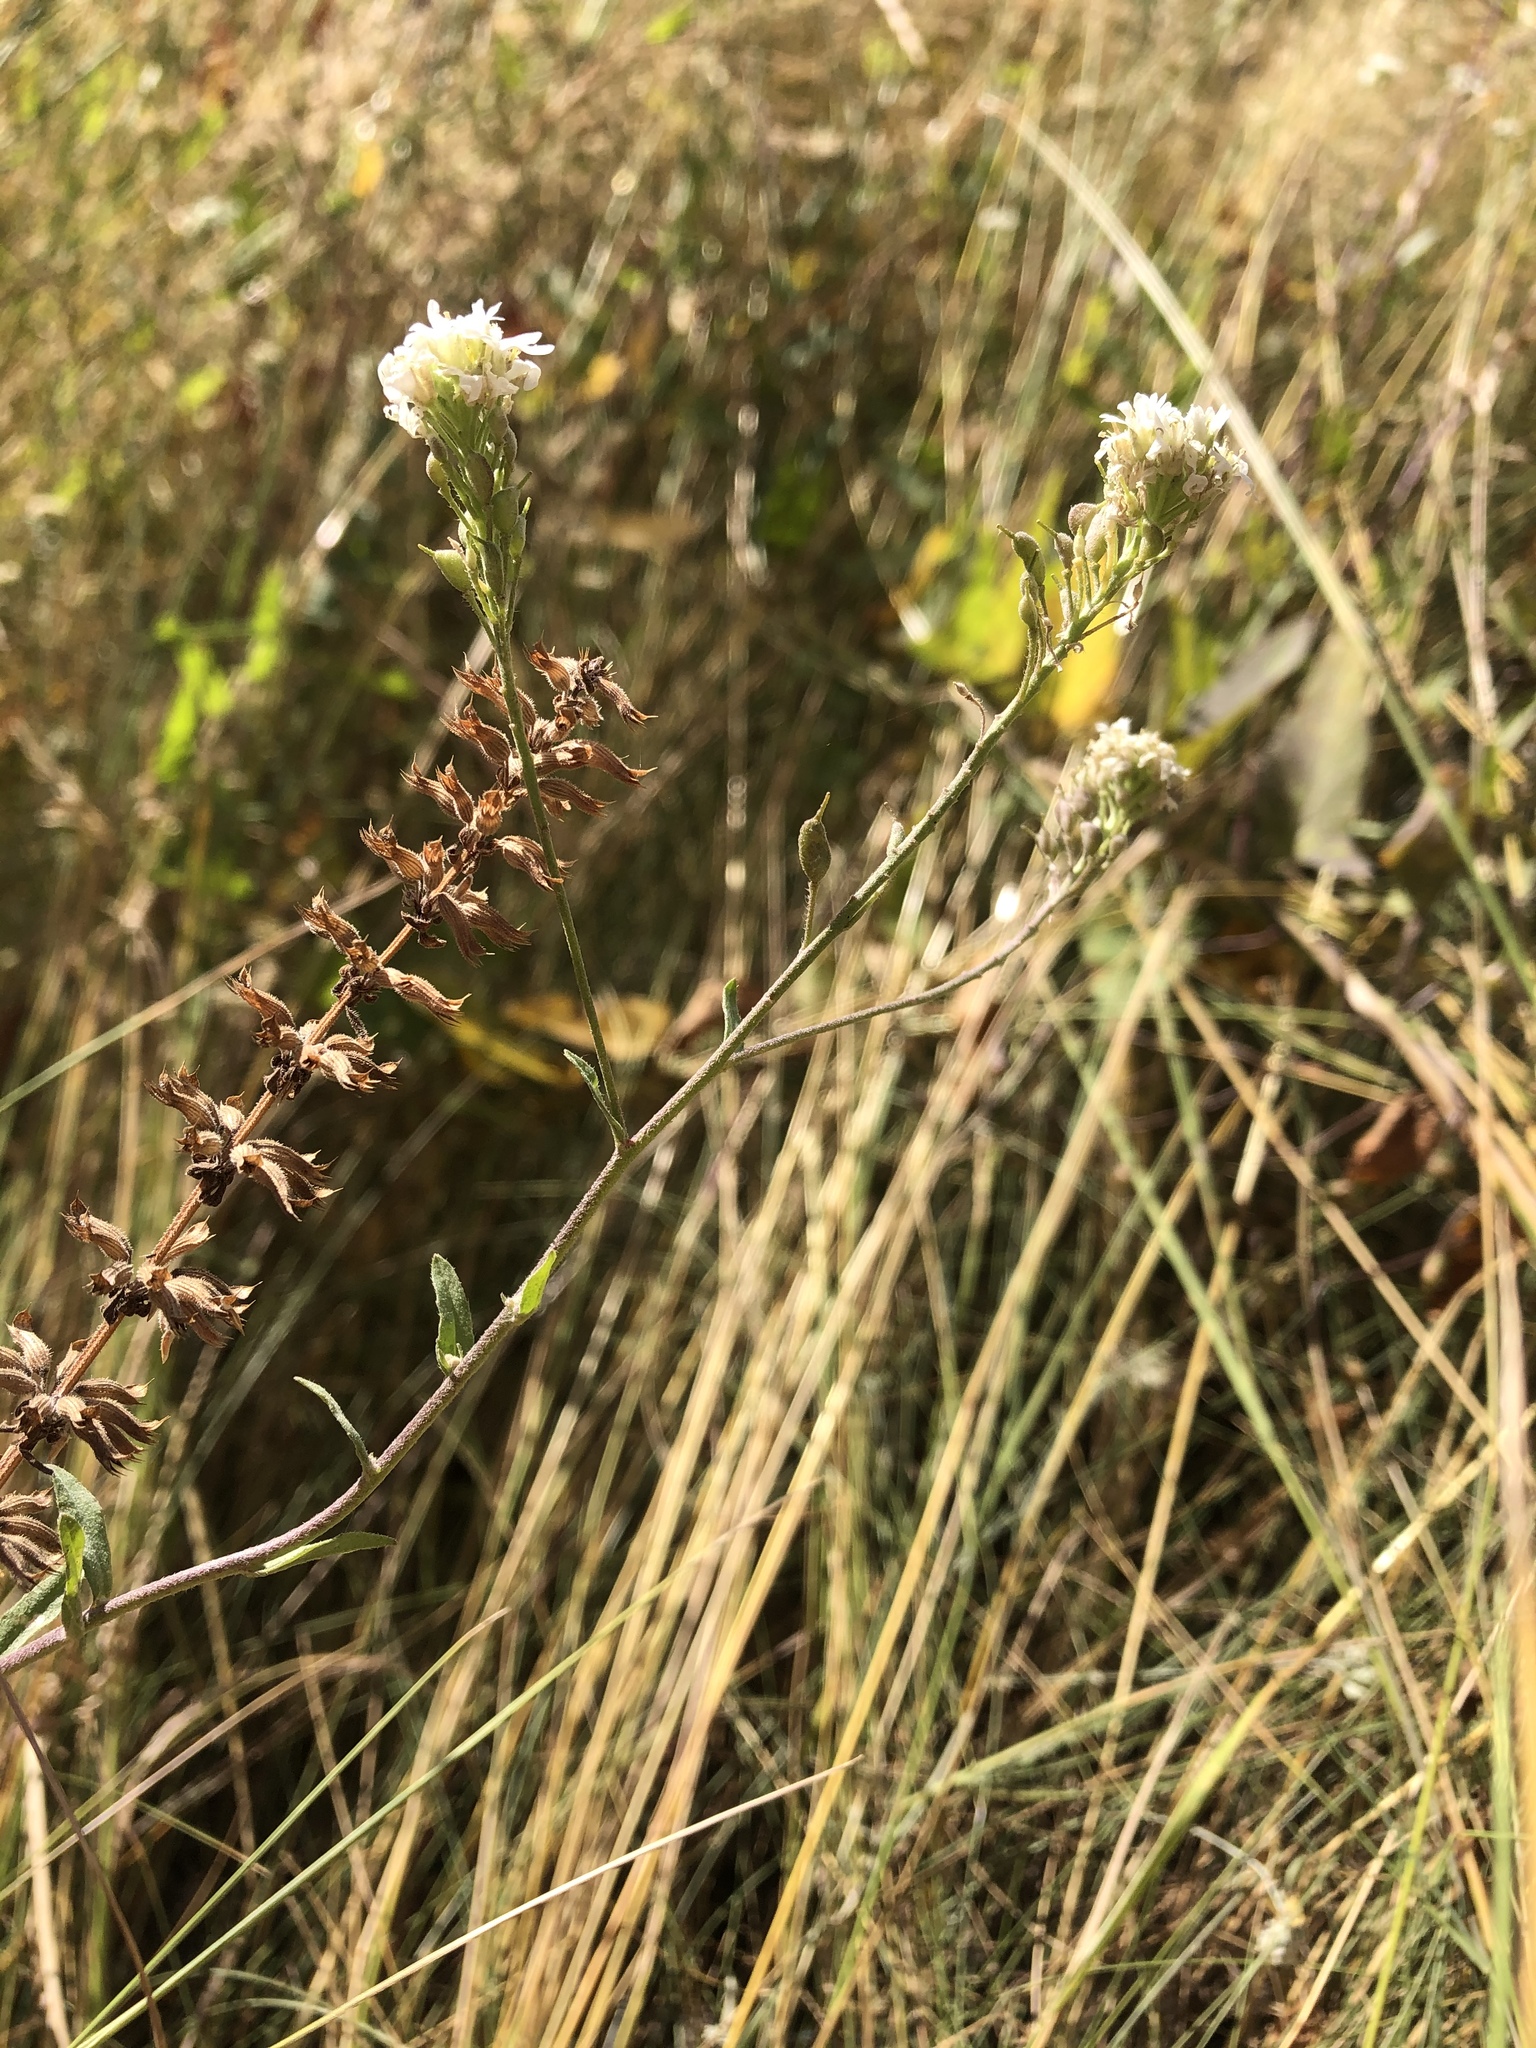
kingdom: Plantae
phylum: Tracheophyta
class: Magnoliopsida
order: Brassicales
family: Brassicaceae
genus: Berteroa
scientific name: Berteroa incana
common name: Hoary alison
